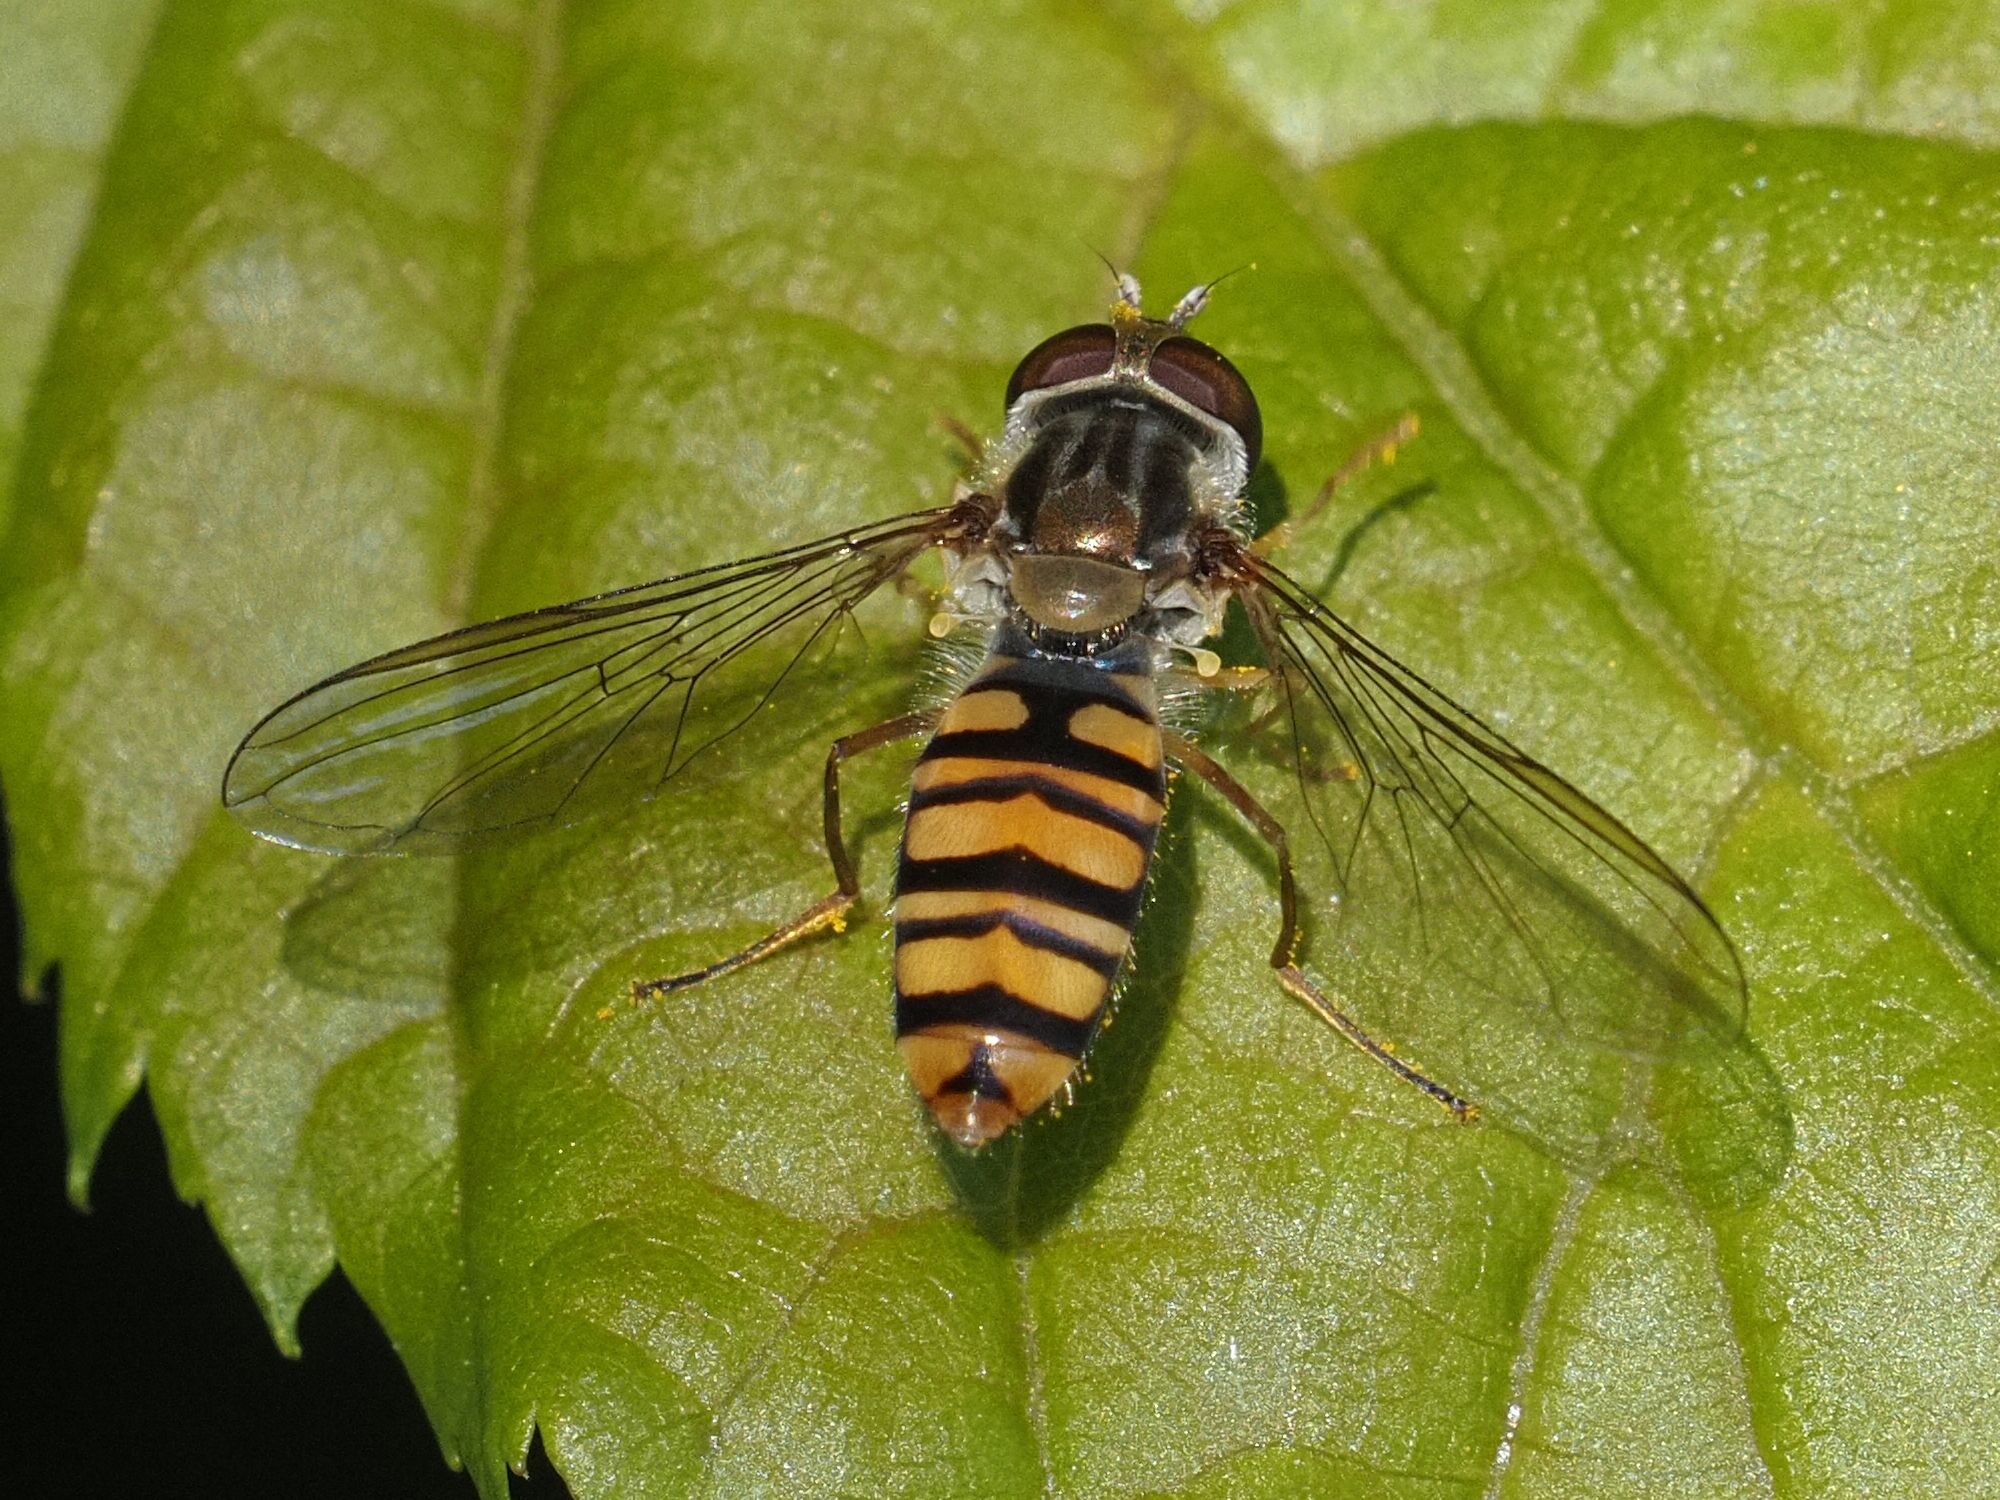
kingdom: Animalia
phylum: Arthropoda
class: Insecta
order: Diptera
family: Syrphidae
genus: Episyrphus
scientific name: Episyrphus balteatus
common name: Marmalade hoverfly
